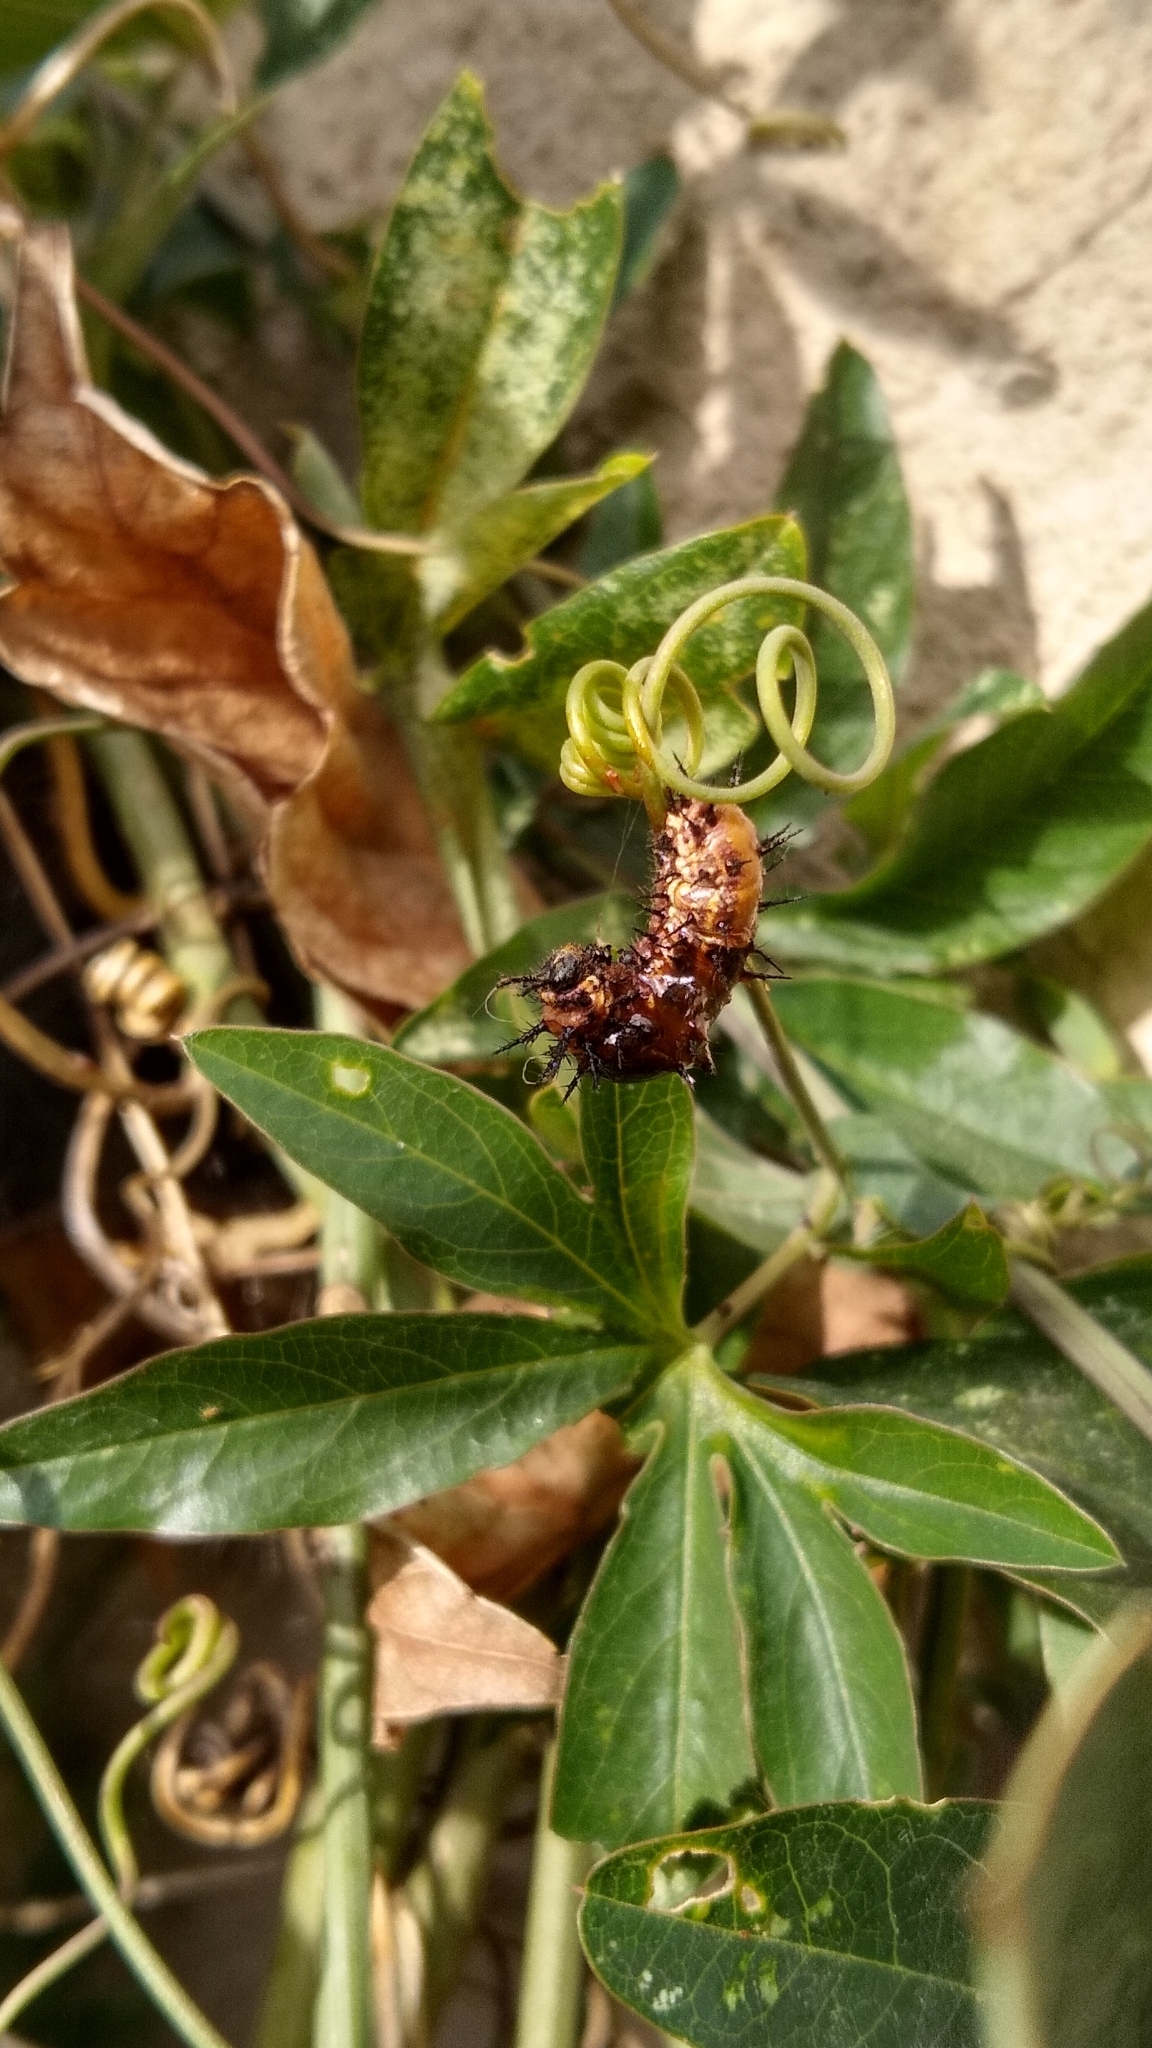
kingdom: Animalia
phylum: Arthropoda
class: Insecta
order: Lepidoptera
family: Nymphalidae
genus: Dione
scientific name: Dione vanillae
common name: Gulf fritillary
